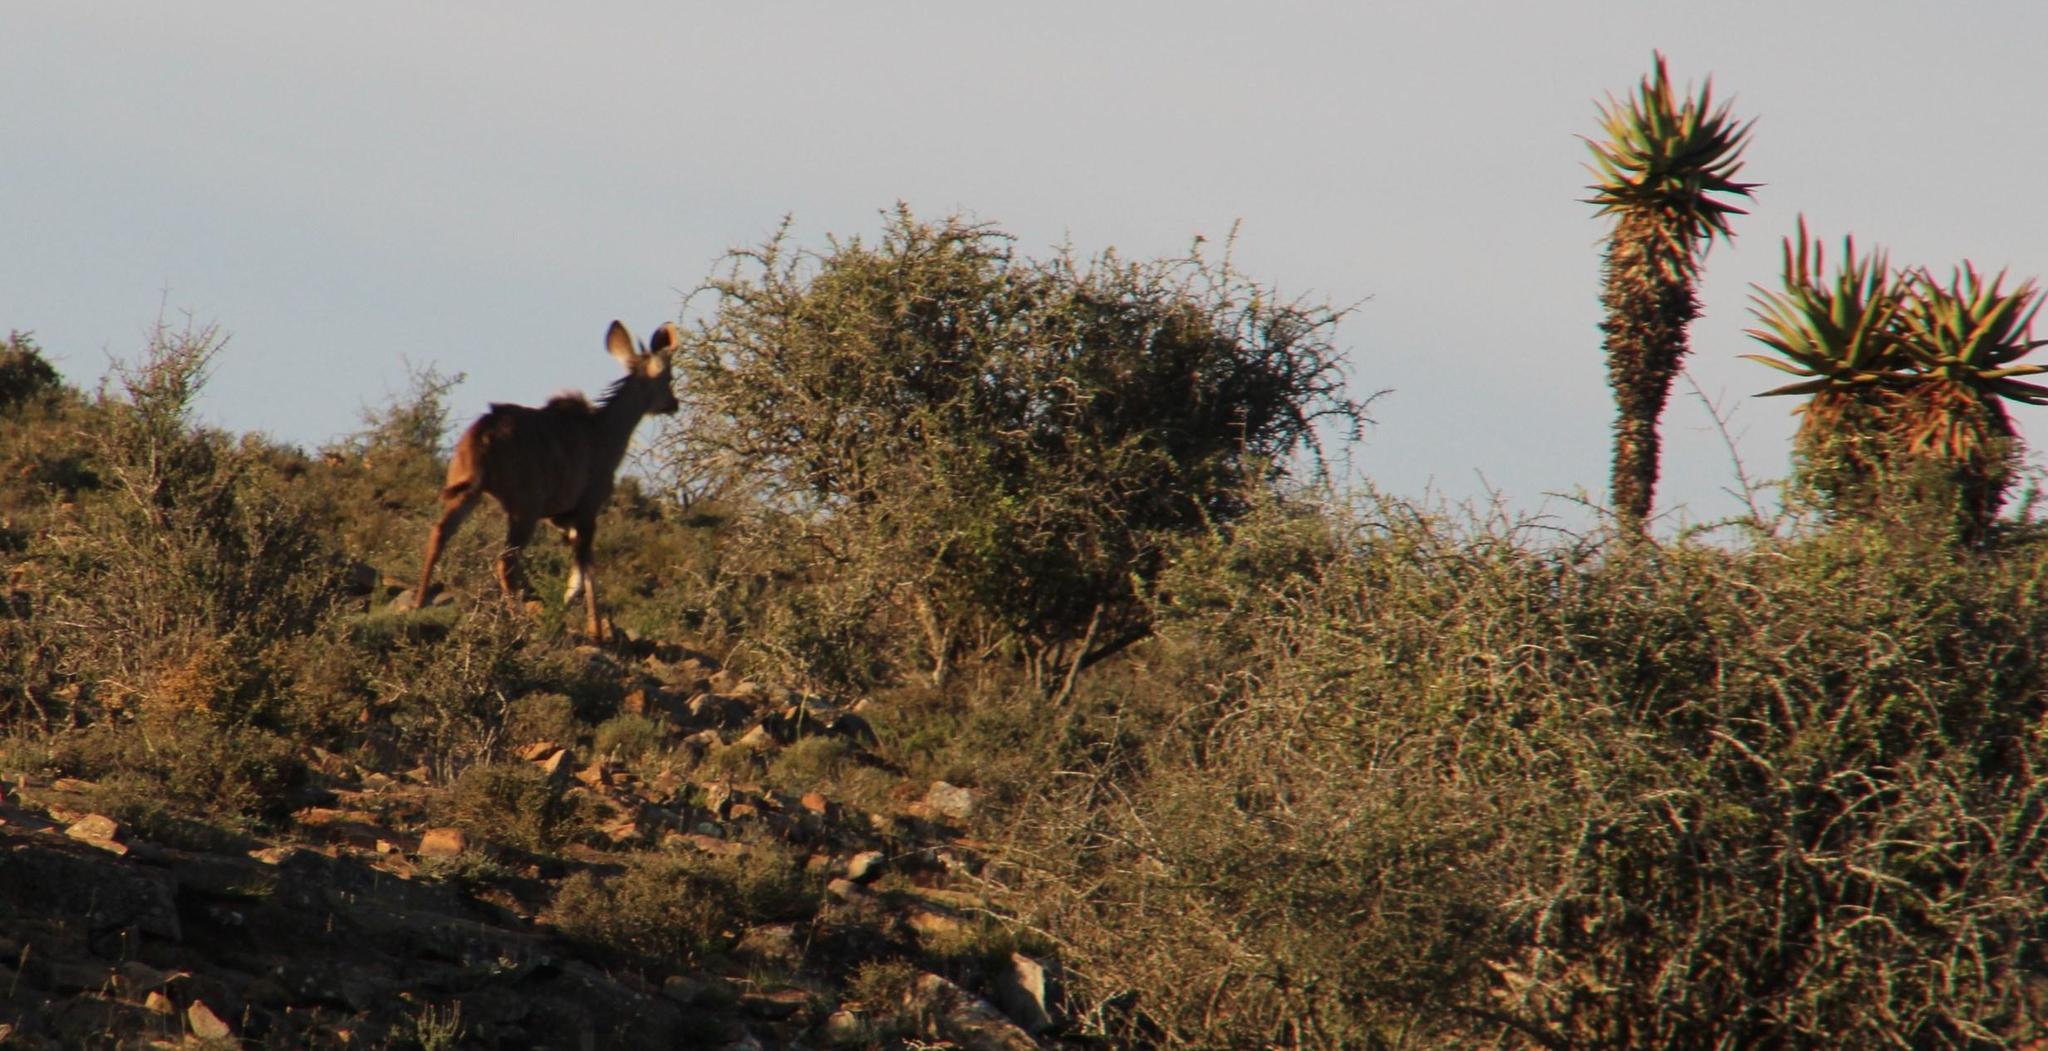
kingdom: Animalia
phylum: Chordata
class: Mammalia
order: Artiodactyla
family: Bovidae
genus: Tragelaphus
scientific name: Tragelaphus strepsiceros
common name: Greater kudu
